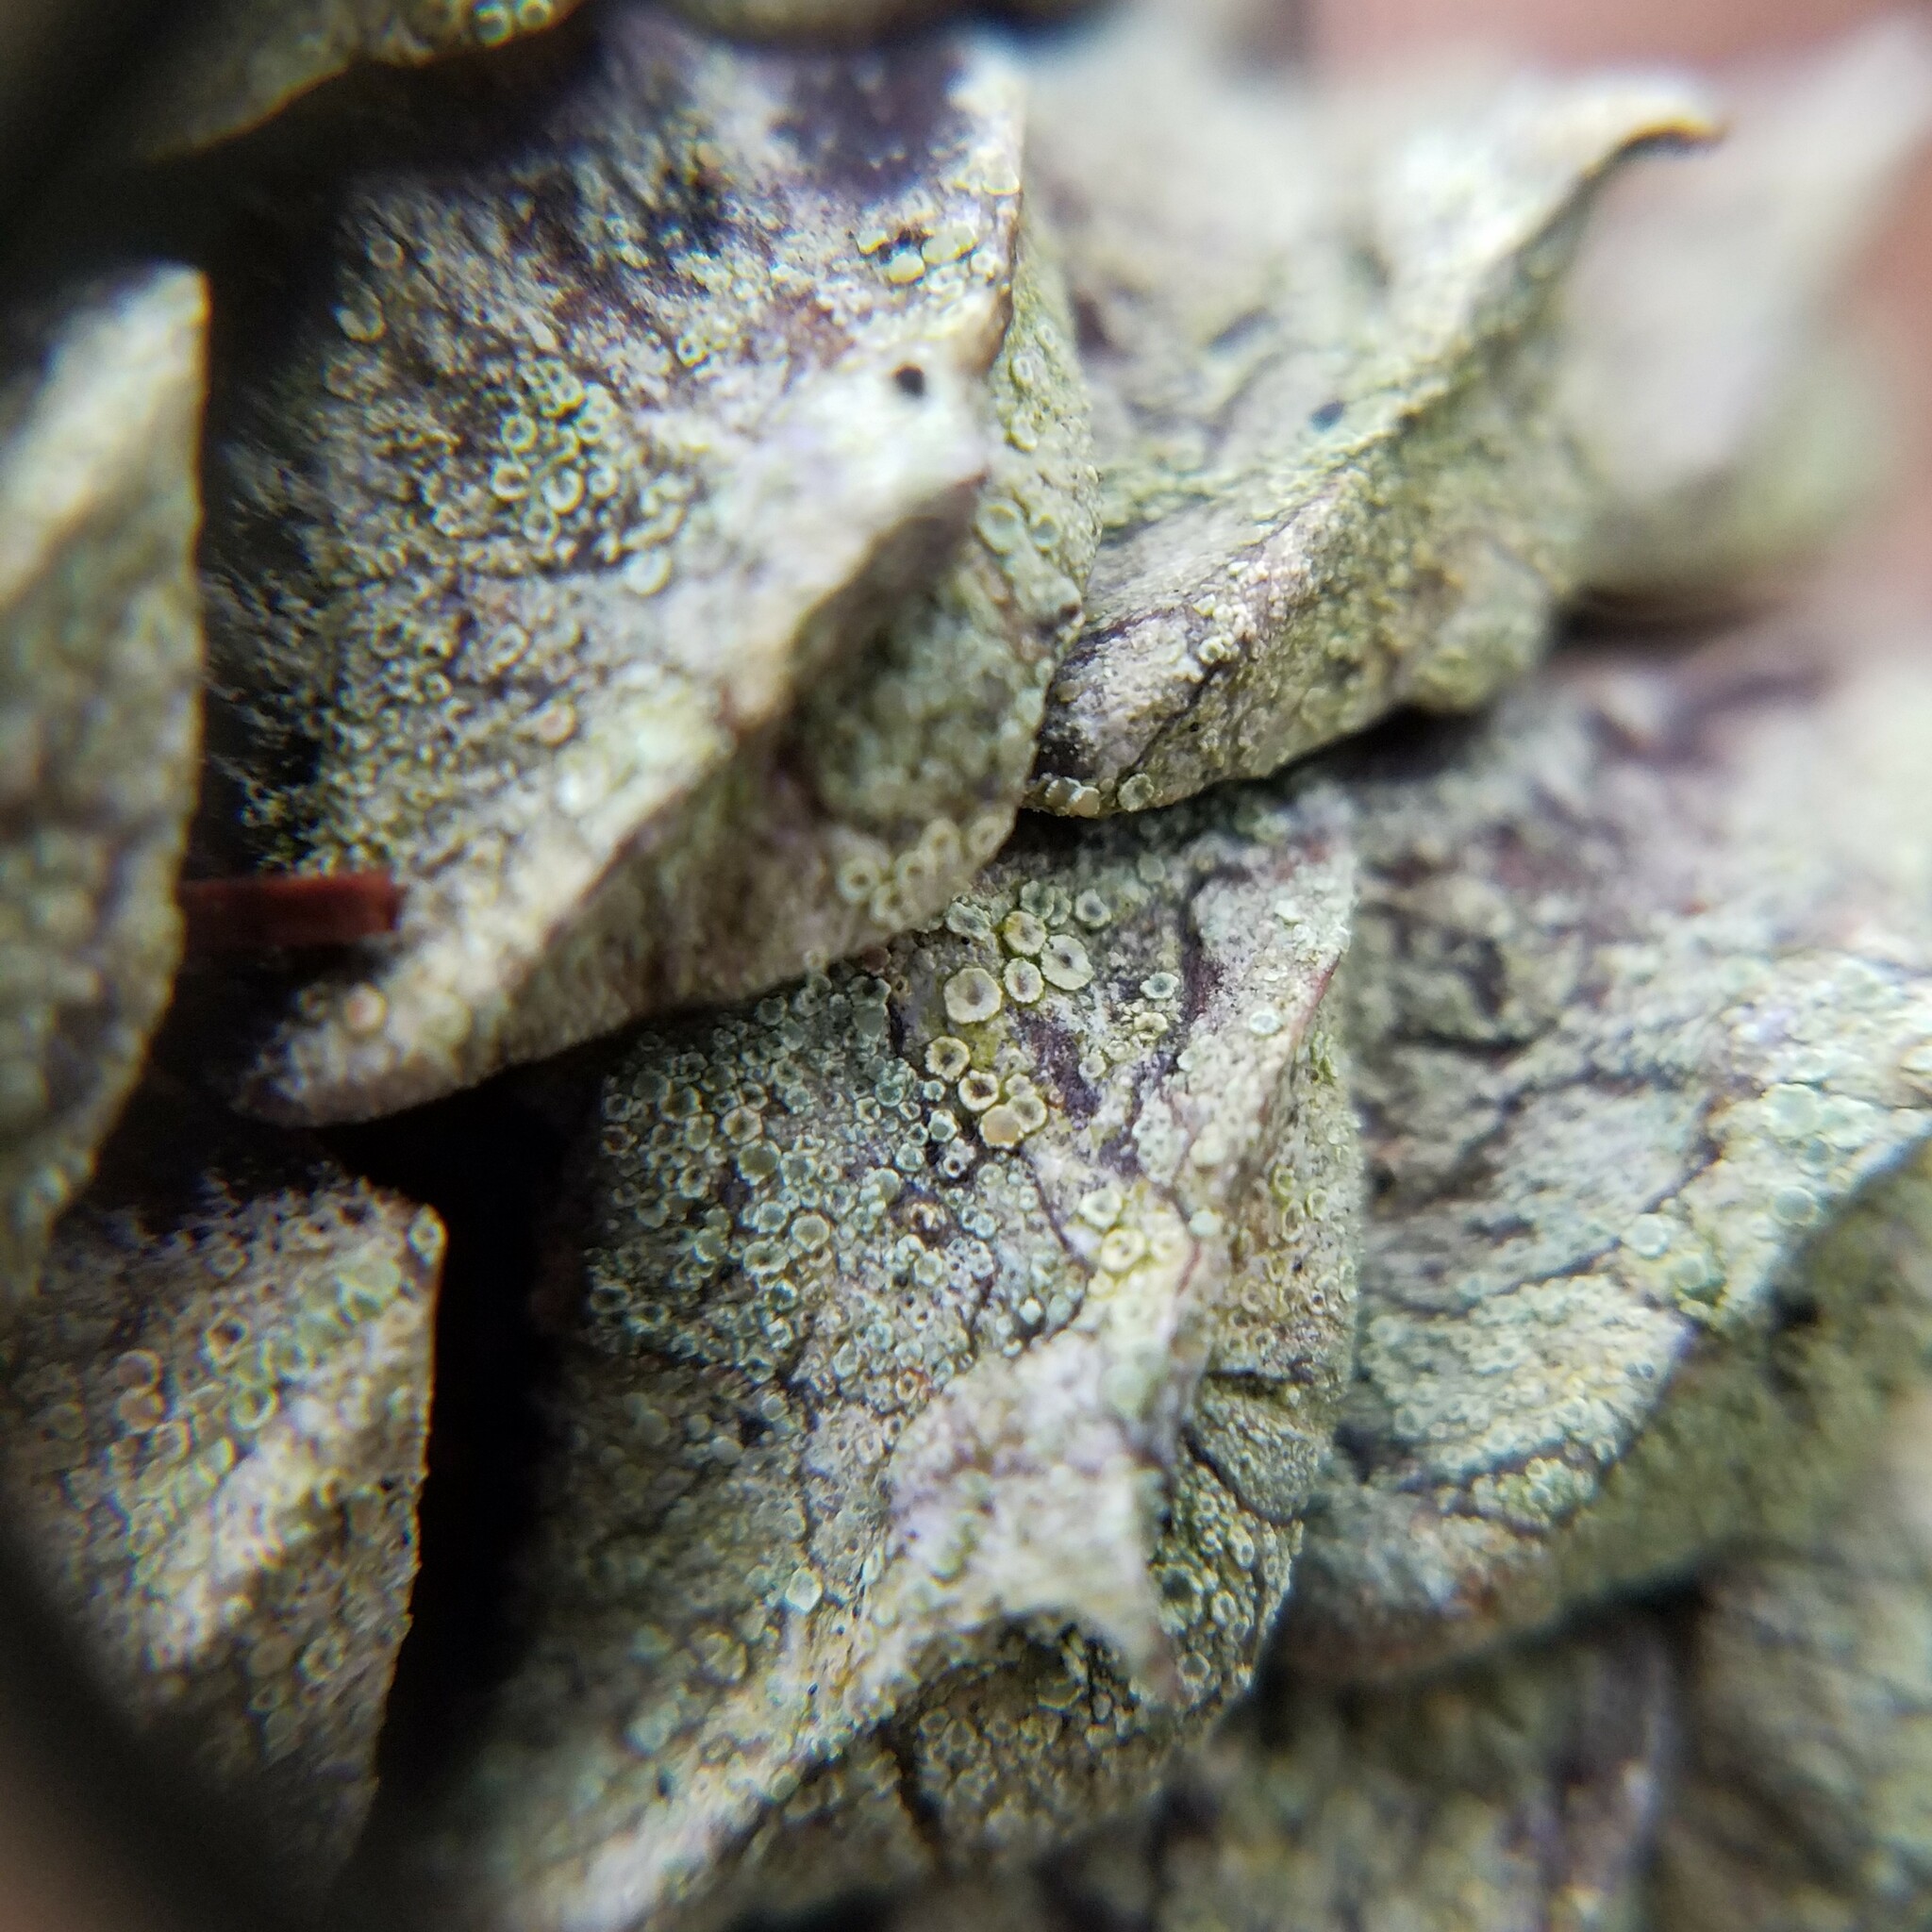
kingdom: Fungi
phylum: Ascomycota
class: Lecanoromycetes
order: Lecanorales
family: Lecanoraceae
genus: Lecanora
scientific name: Lecanora strobilina
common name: Mealy rim-lichen
